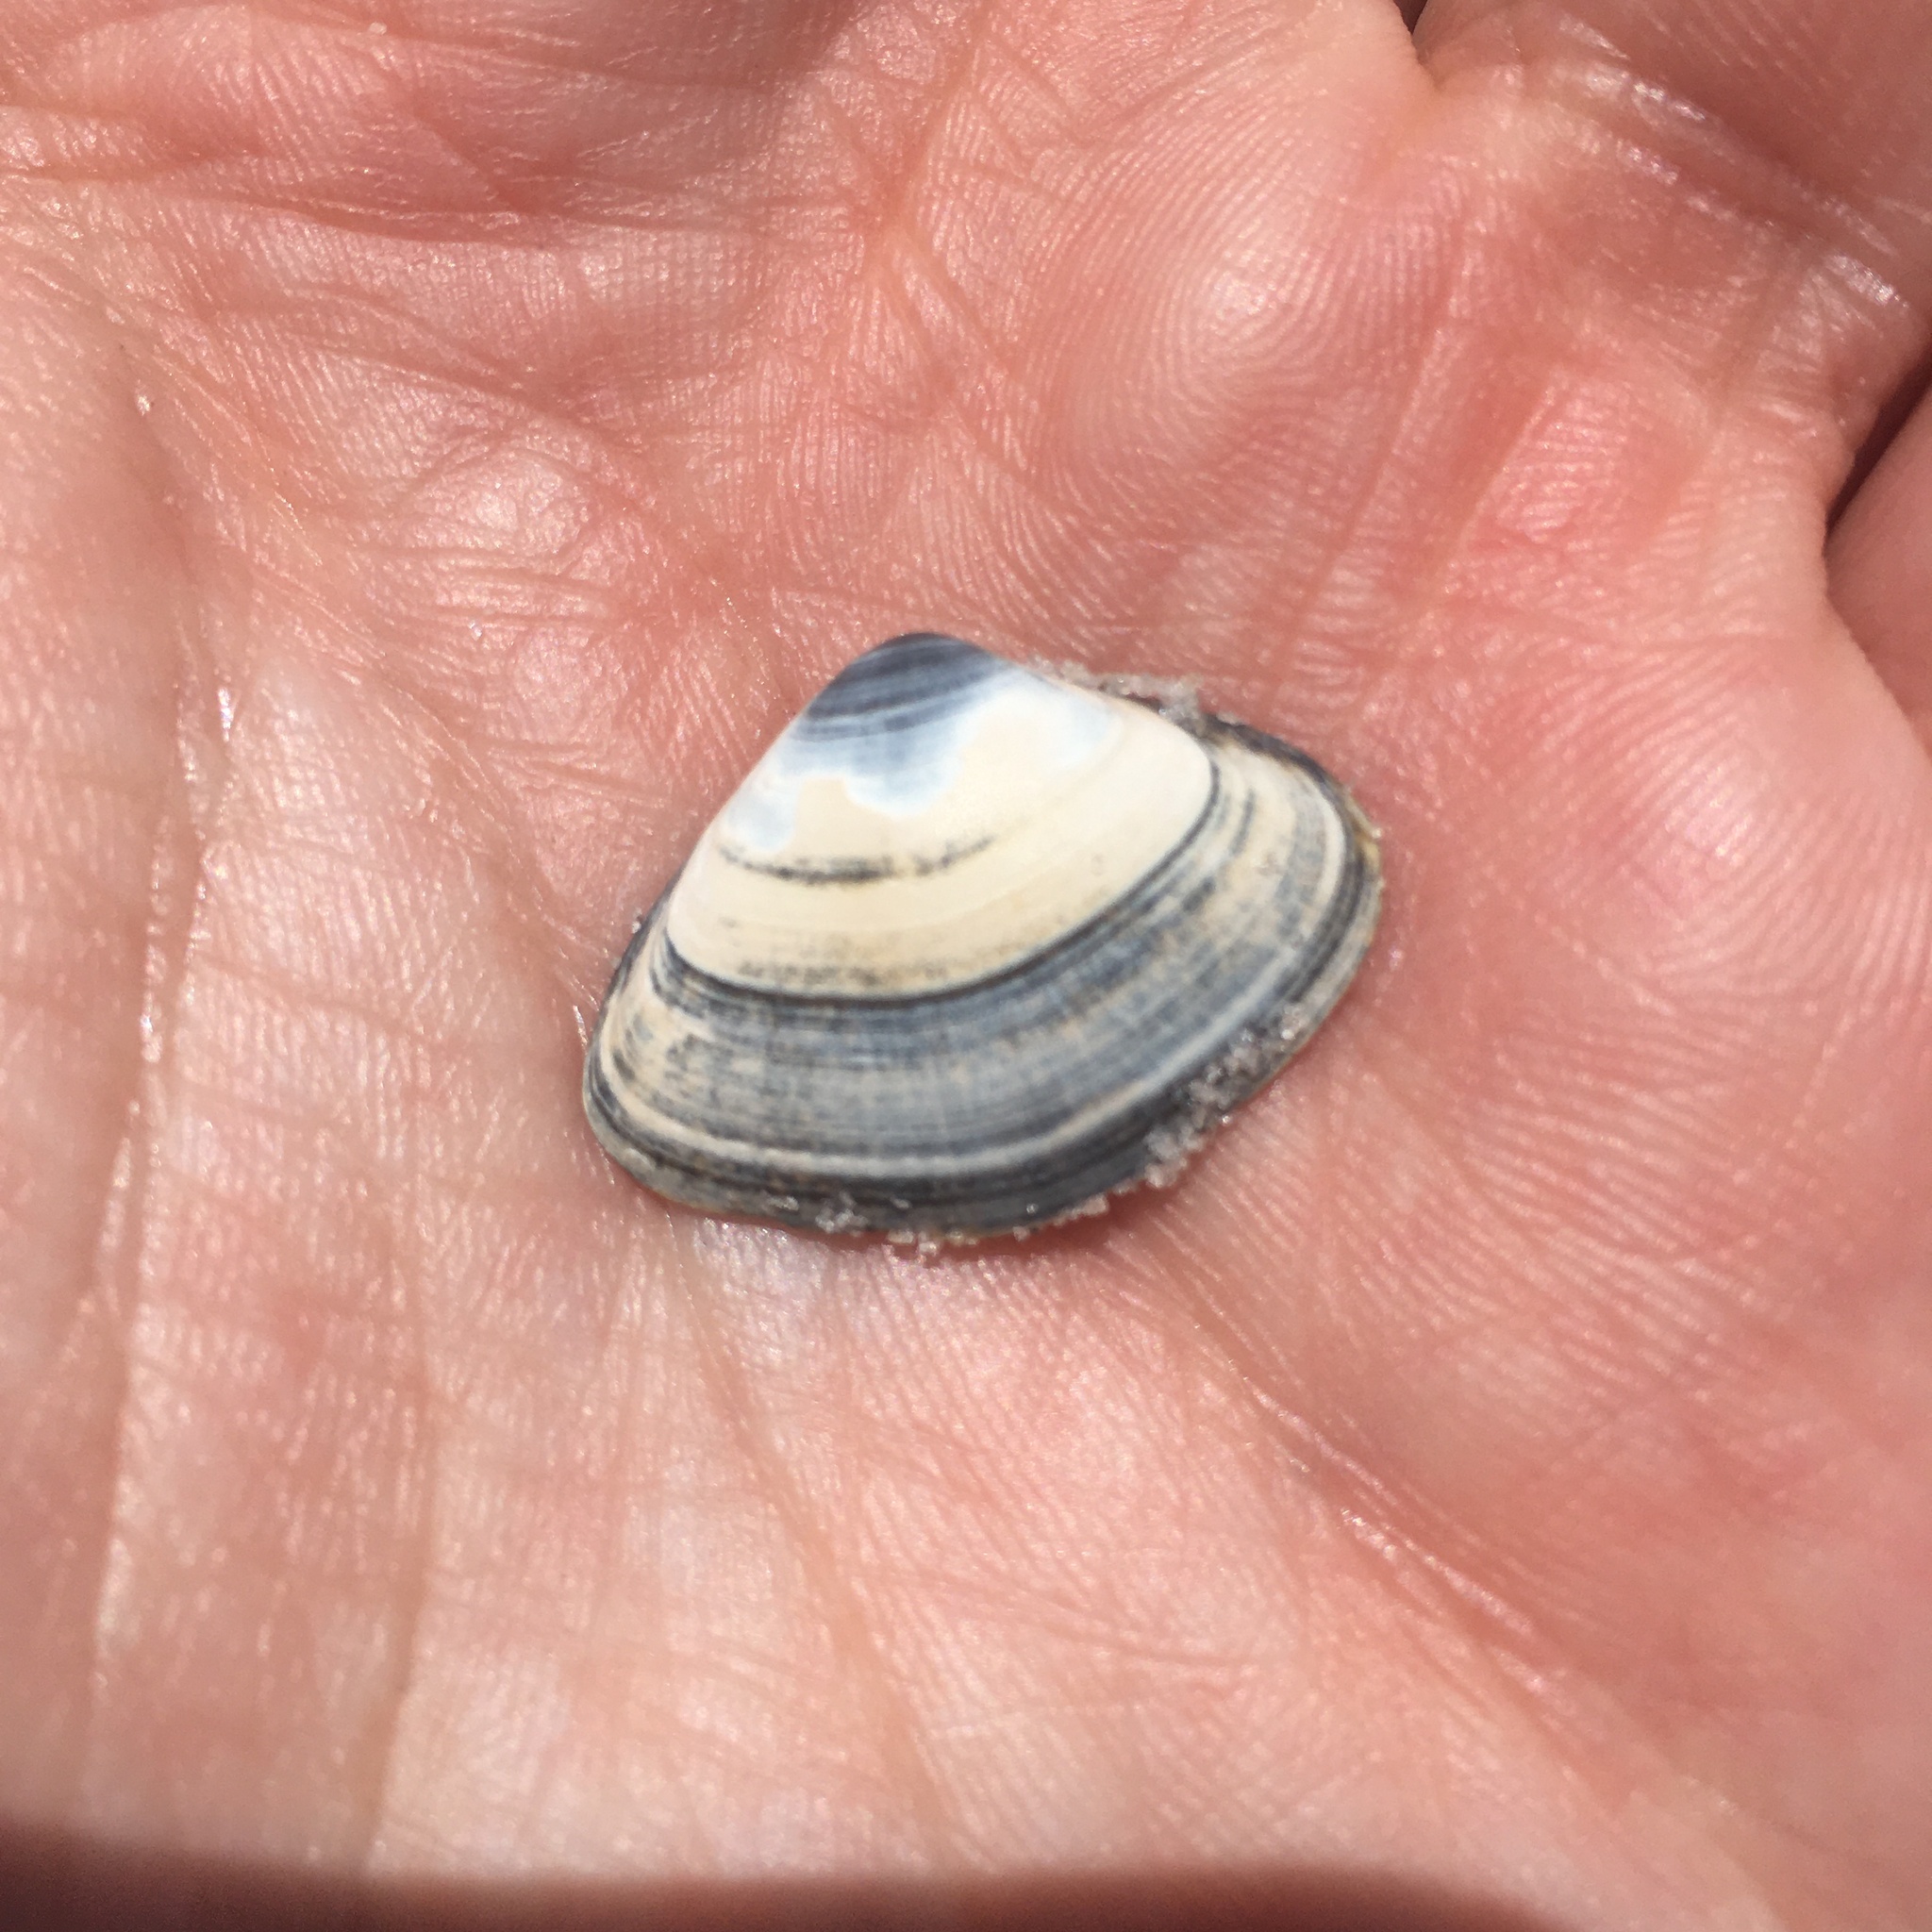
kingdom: Animalia
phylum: Mollusca
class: Bivalvia
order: Venerida
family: Mactridae
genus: Spisula
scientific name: Spisula raveneli
